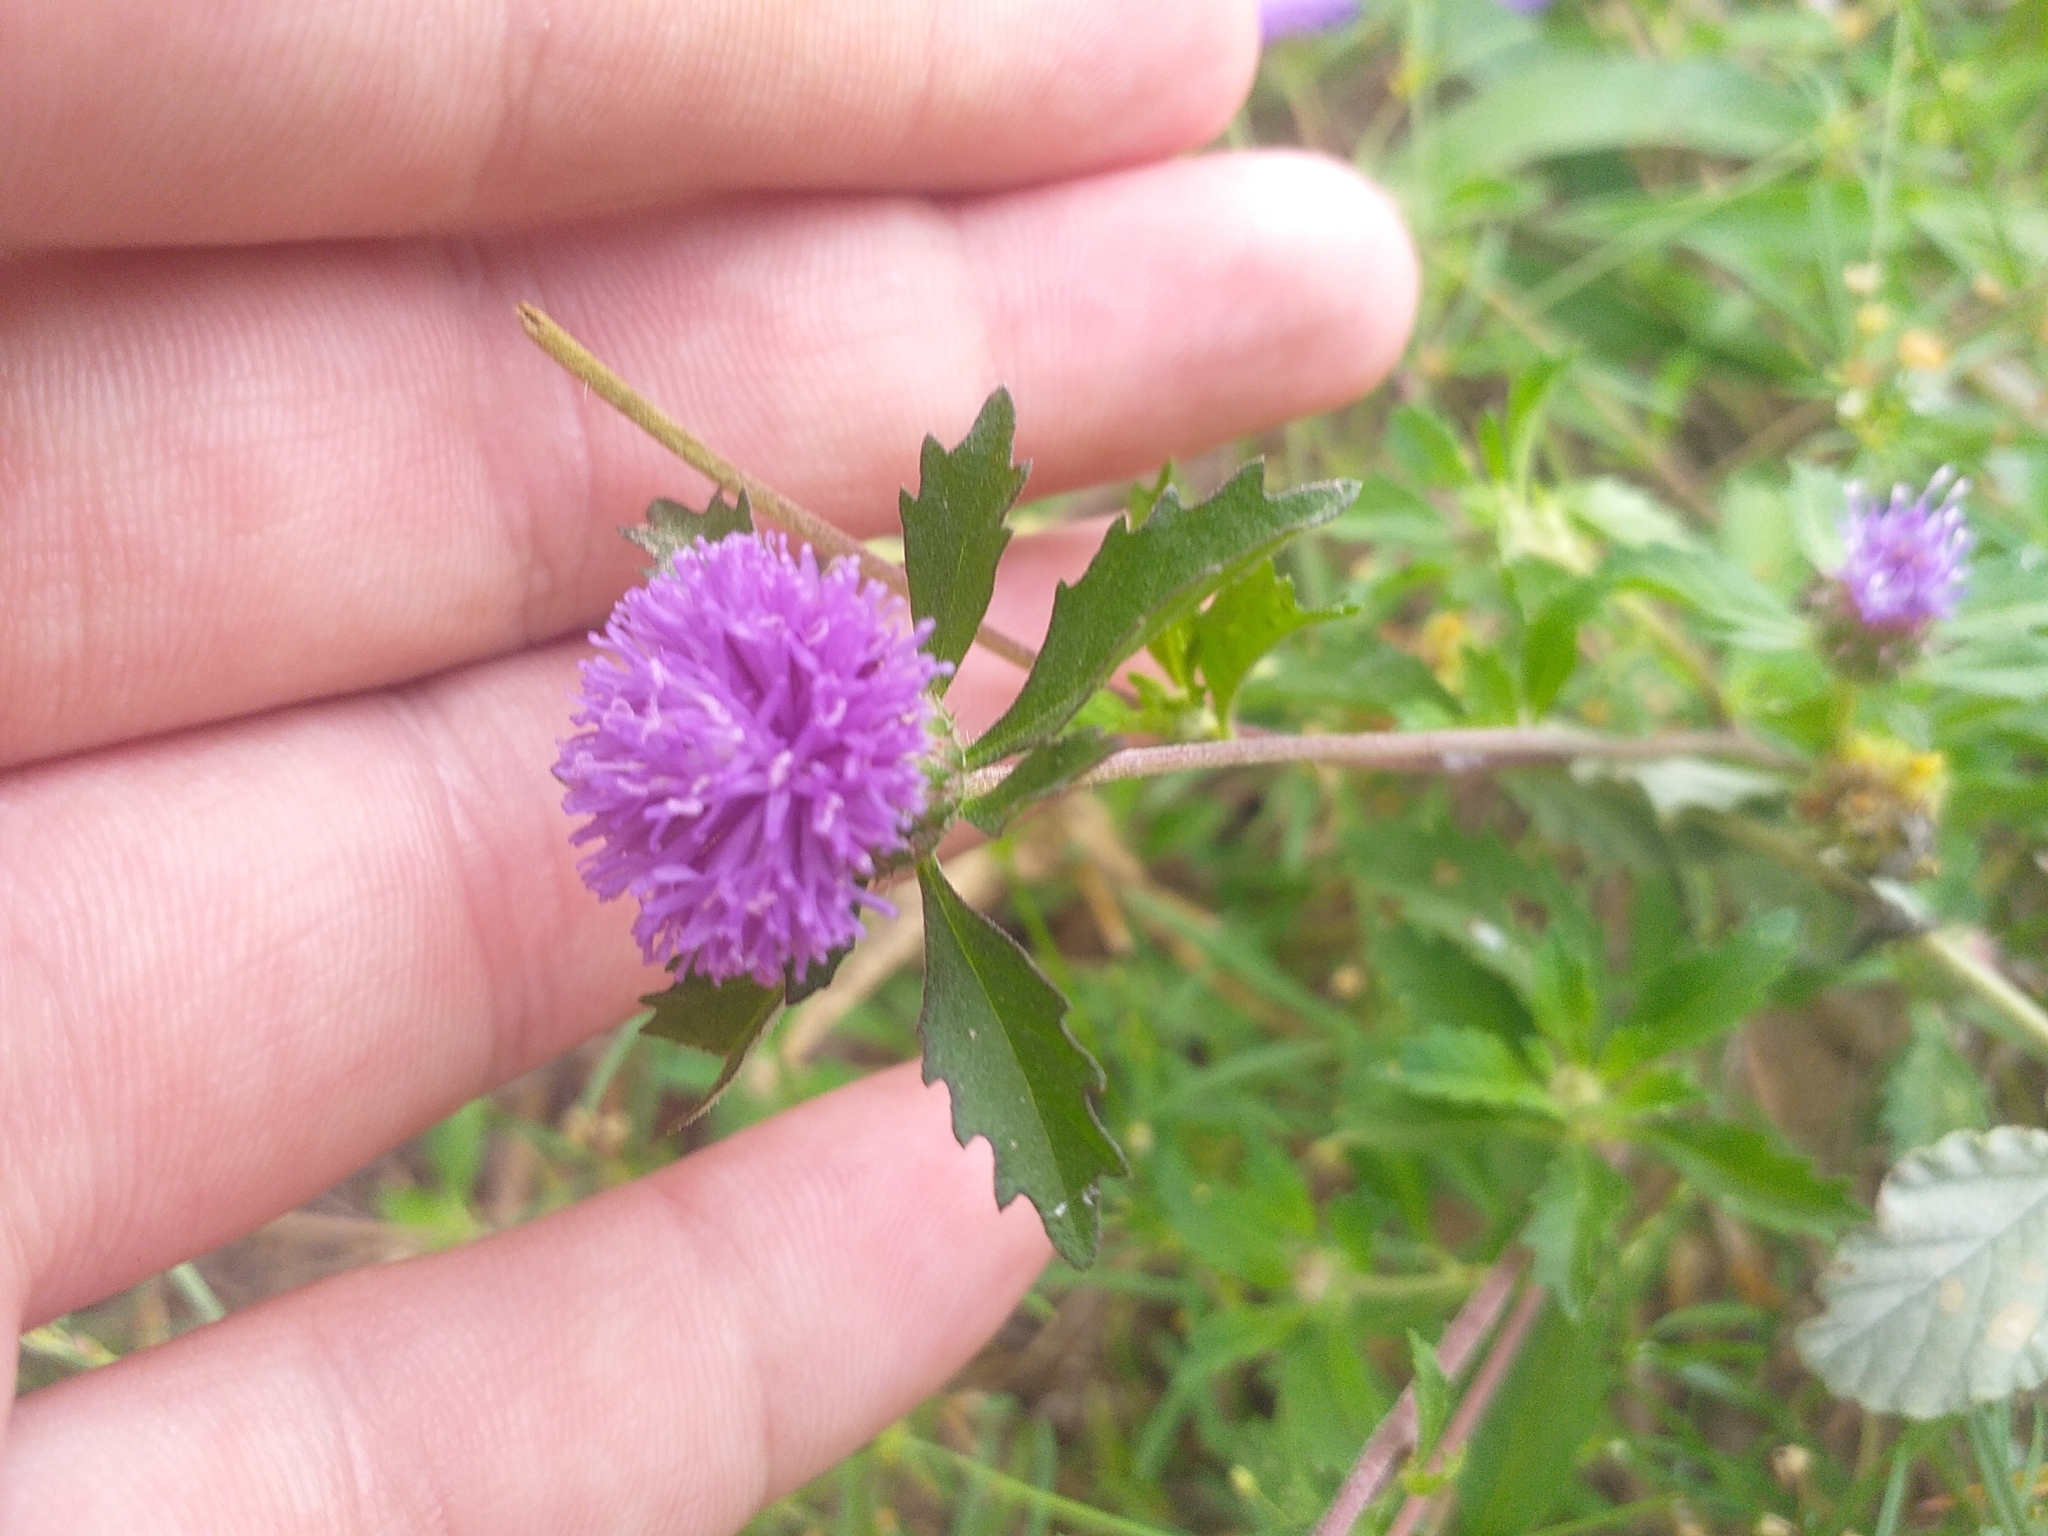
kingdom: Plantae
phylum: Tracheophyta
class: Magnoliopsida
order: Asterales
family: Asteraceae
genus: Centratherum
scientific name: Centratherum punctatum
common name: Larkdaisy
